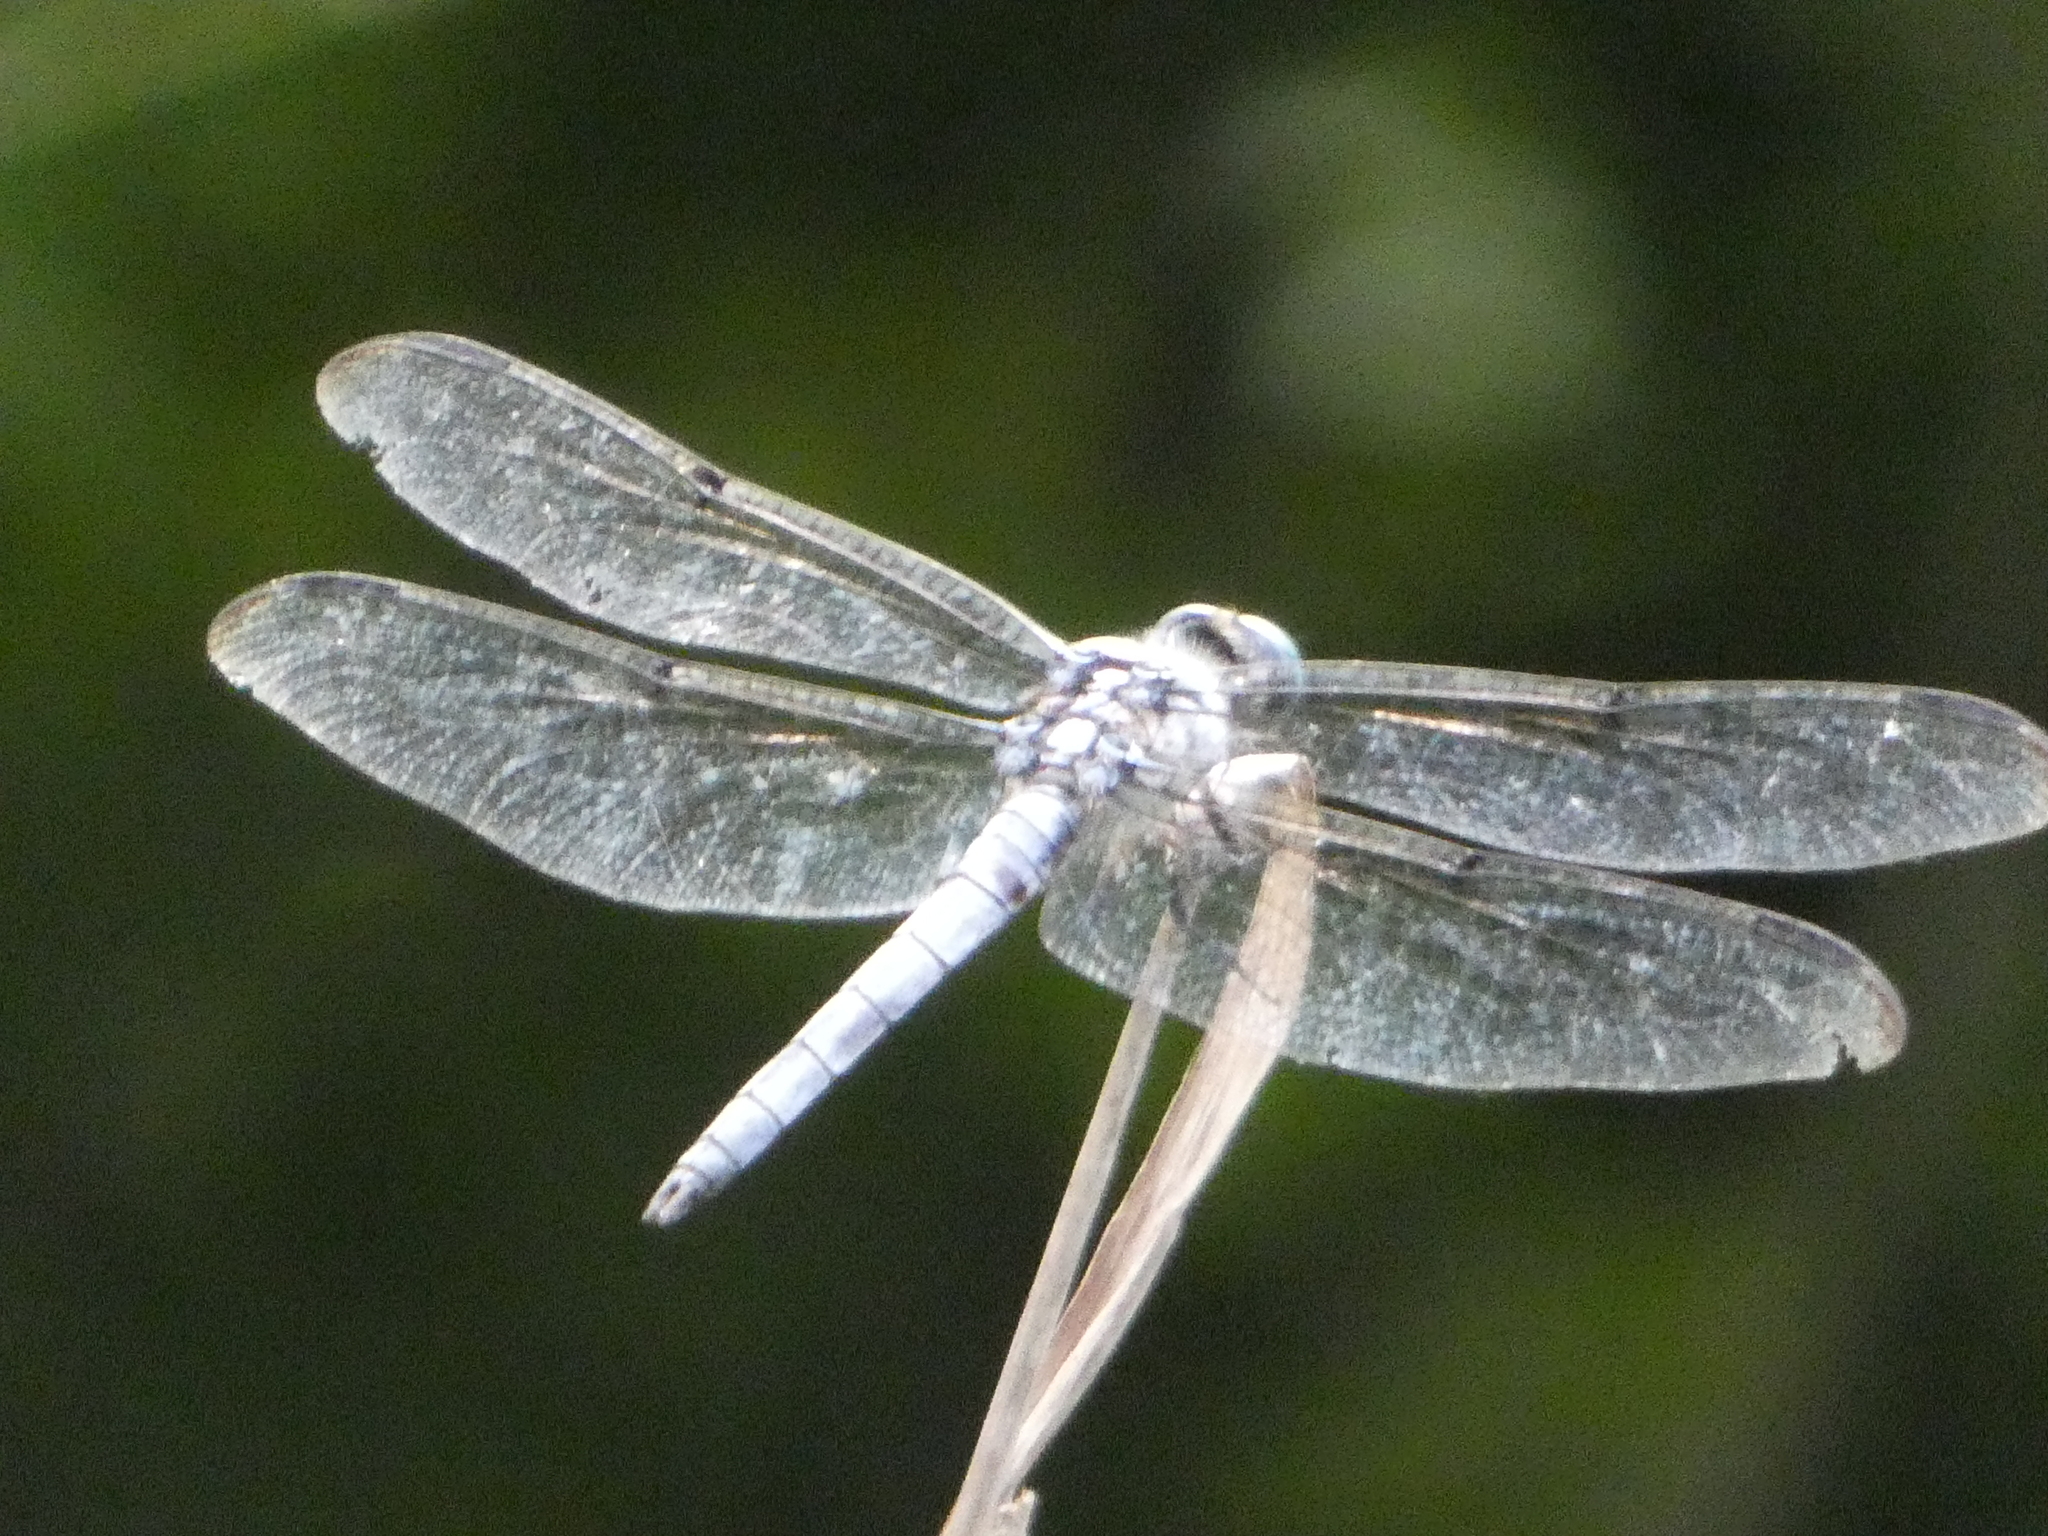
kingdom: Animalia
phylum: Arthropoda
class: Insecta
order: Odonata
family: Libellulidae
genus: Libellula
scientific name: Libellula vibrans
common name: Great blue skimmer
